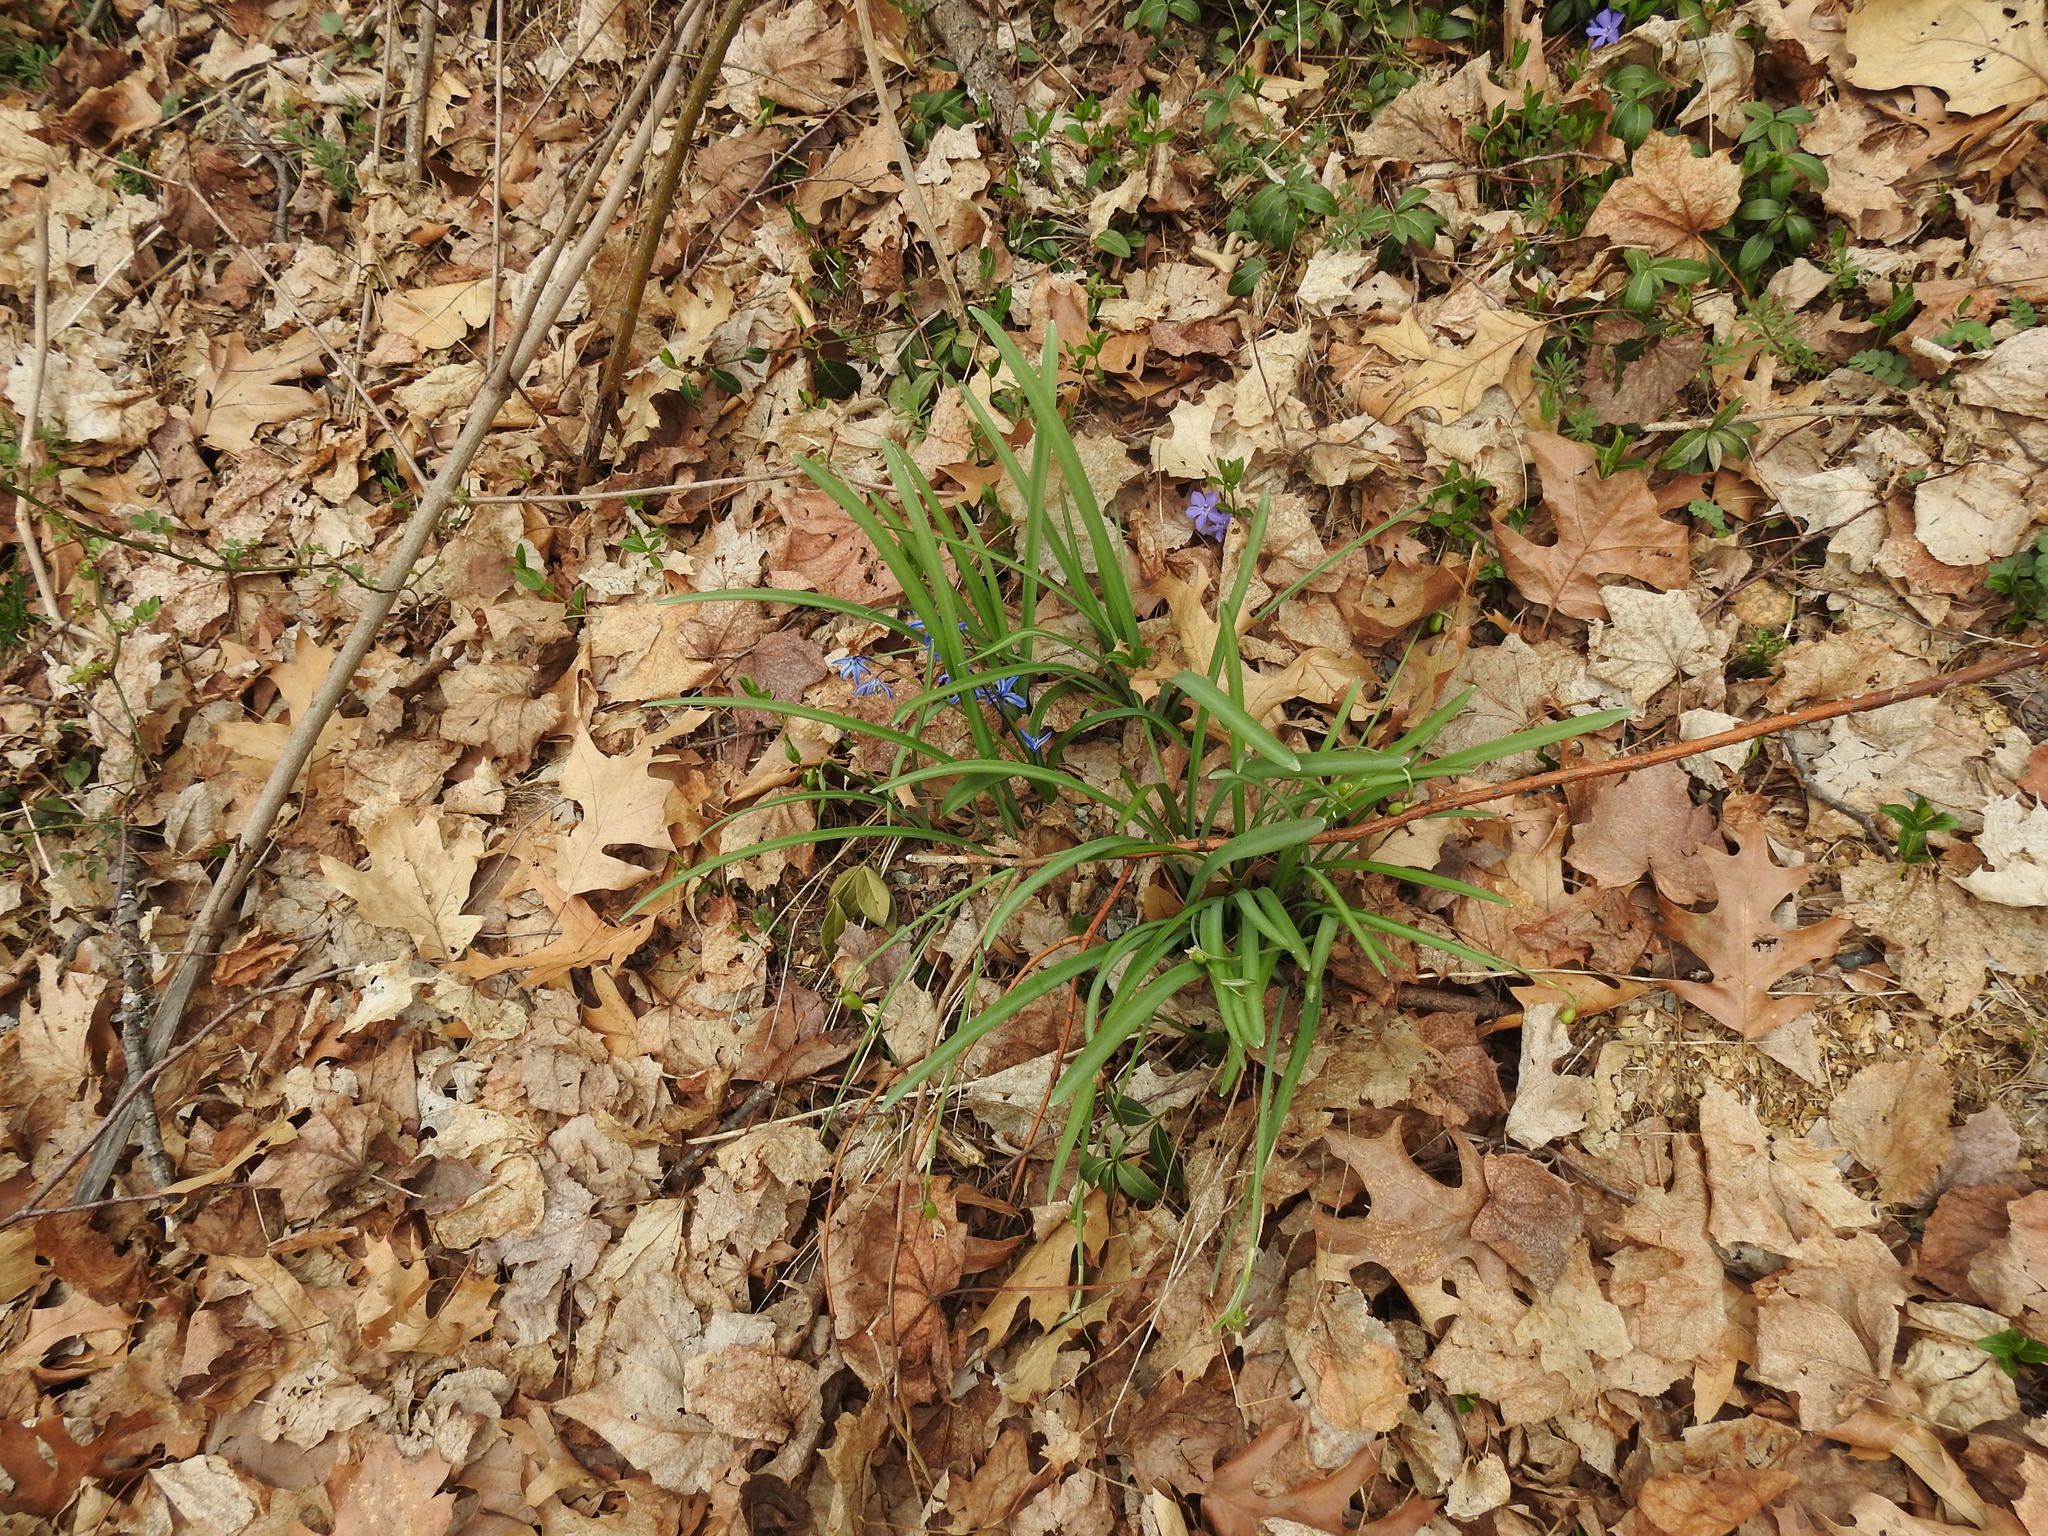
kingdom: Plantae
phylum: Tracheophyta
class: Liliopsida
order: Asparagales
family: Asparagaceae
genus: Scilla
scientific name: Scilla siberica
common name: Siberian squill
